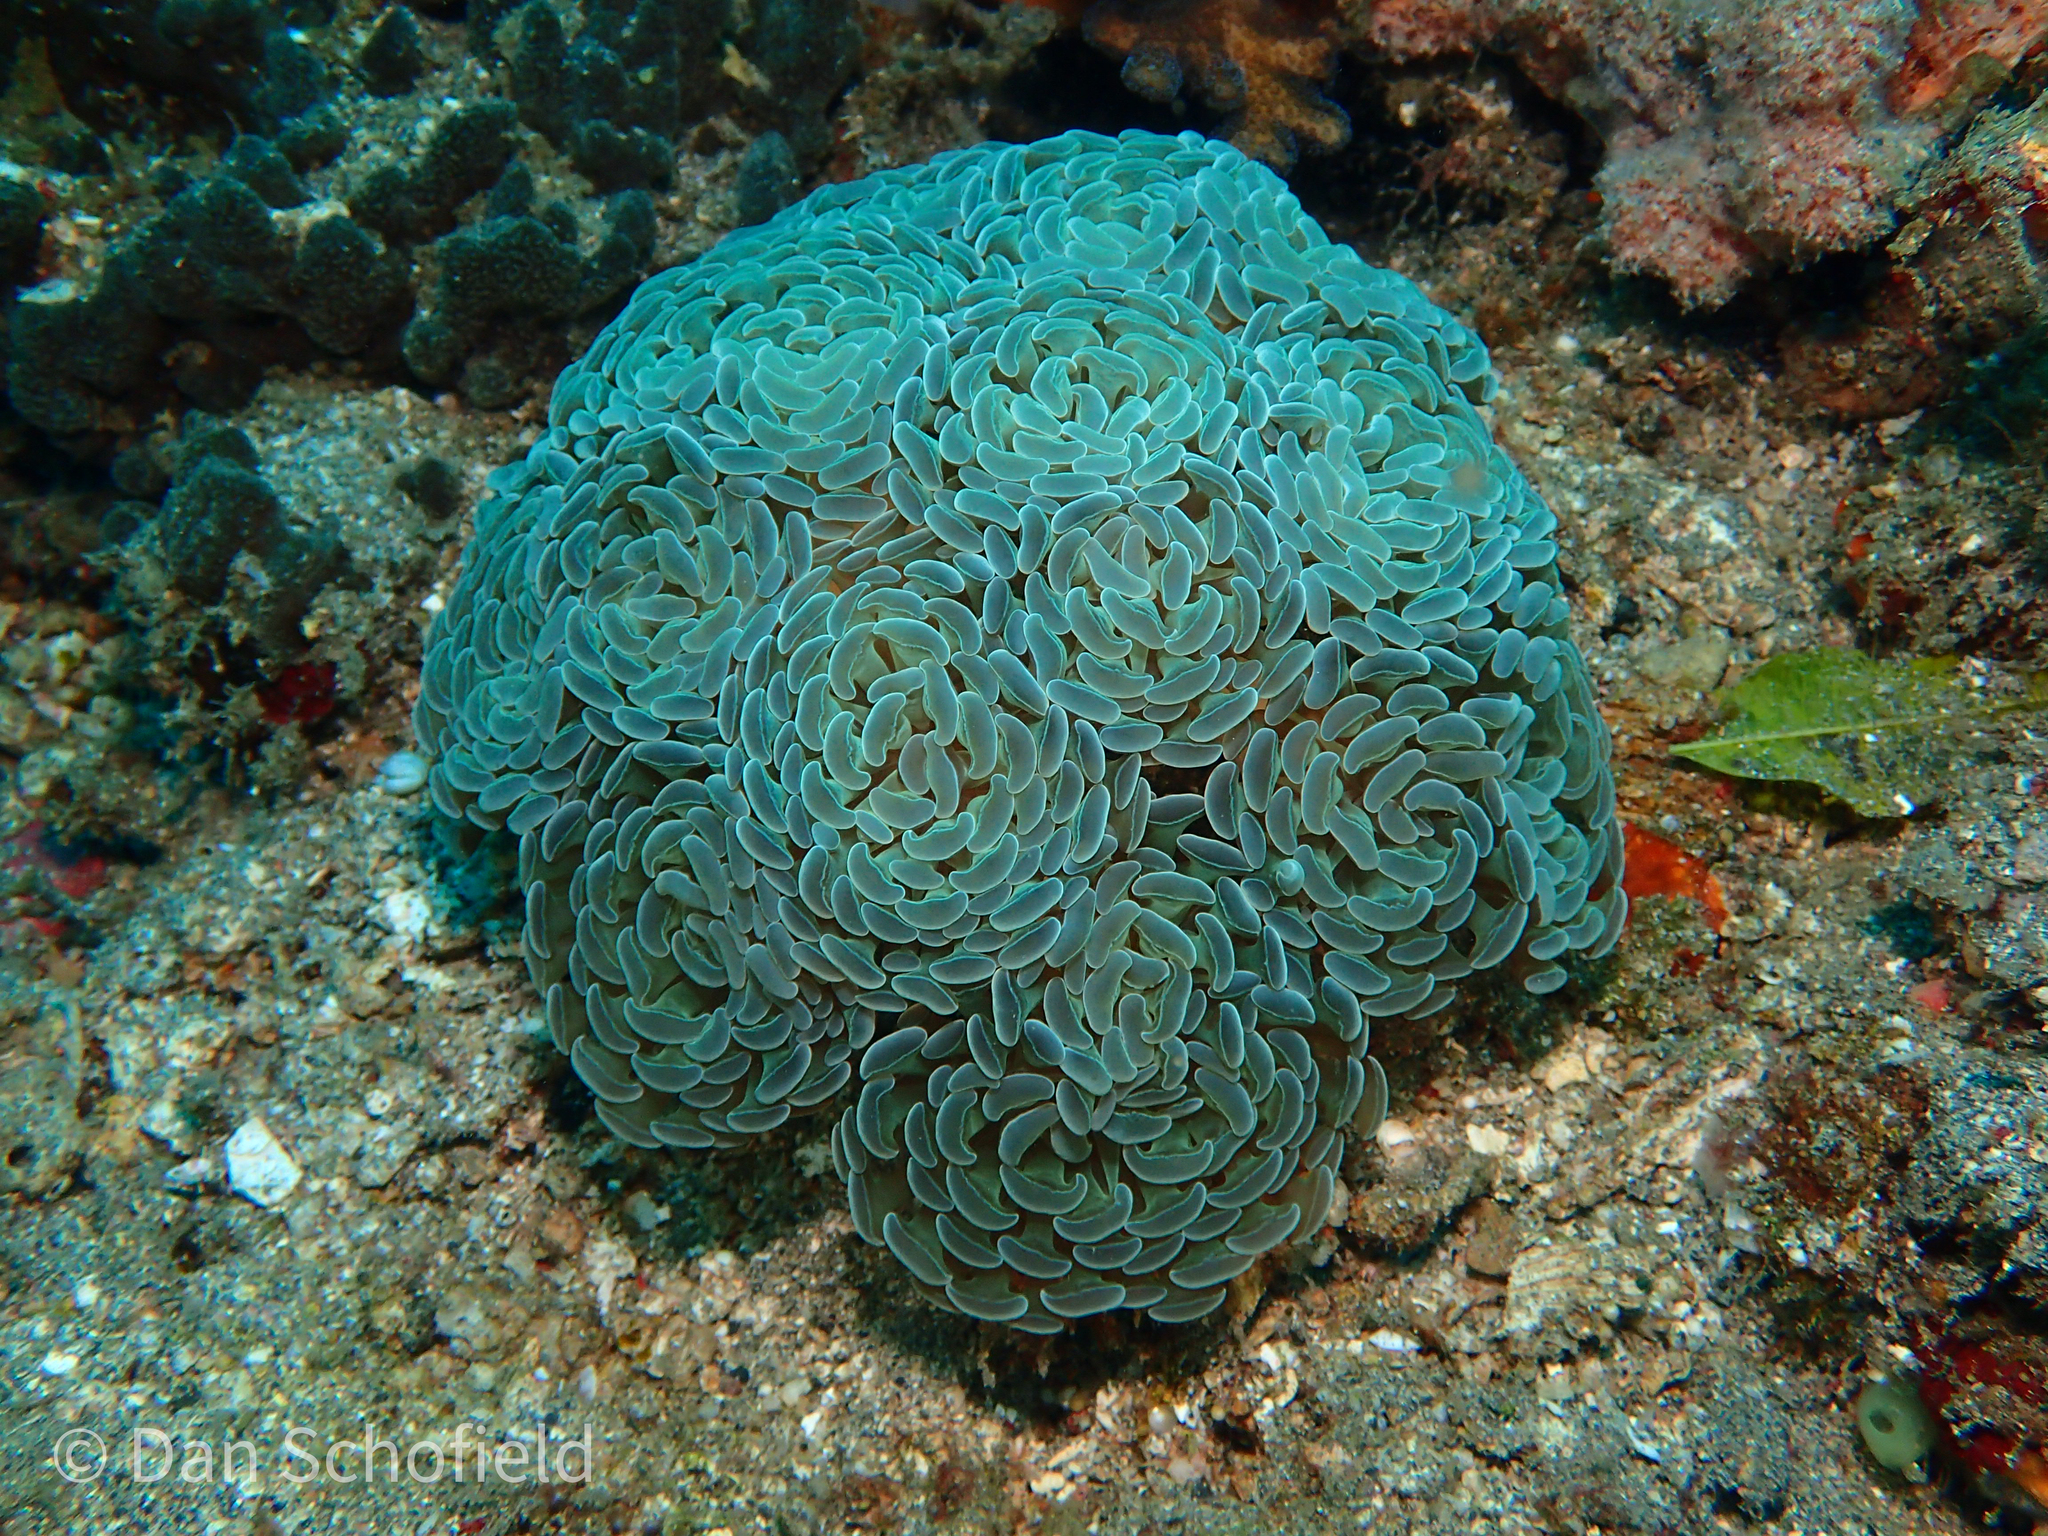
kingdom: Animalia
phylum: Cnidaria
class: Anthozoa
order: Scleractinia
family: Euphylliidae
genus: Fimbriaphyllia
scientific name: Fimbriaphyllia paraancora
